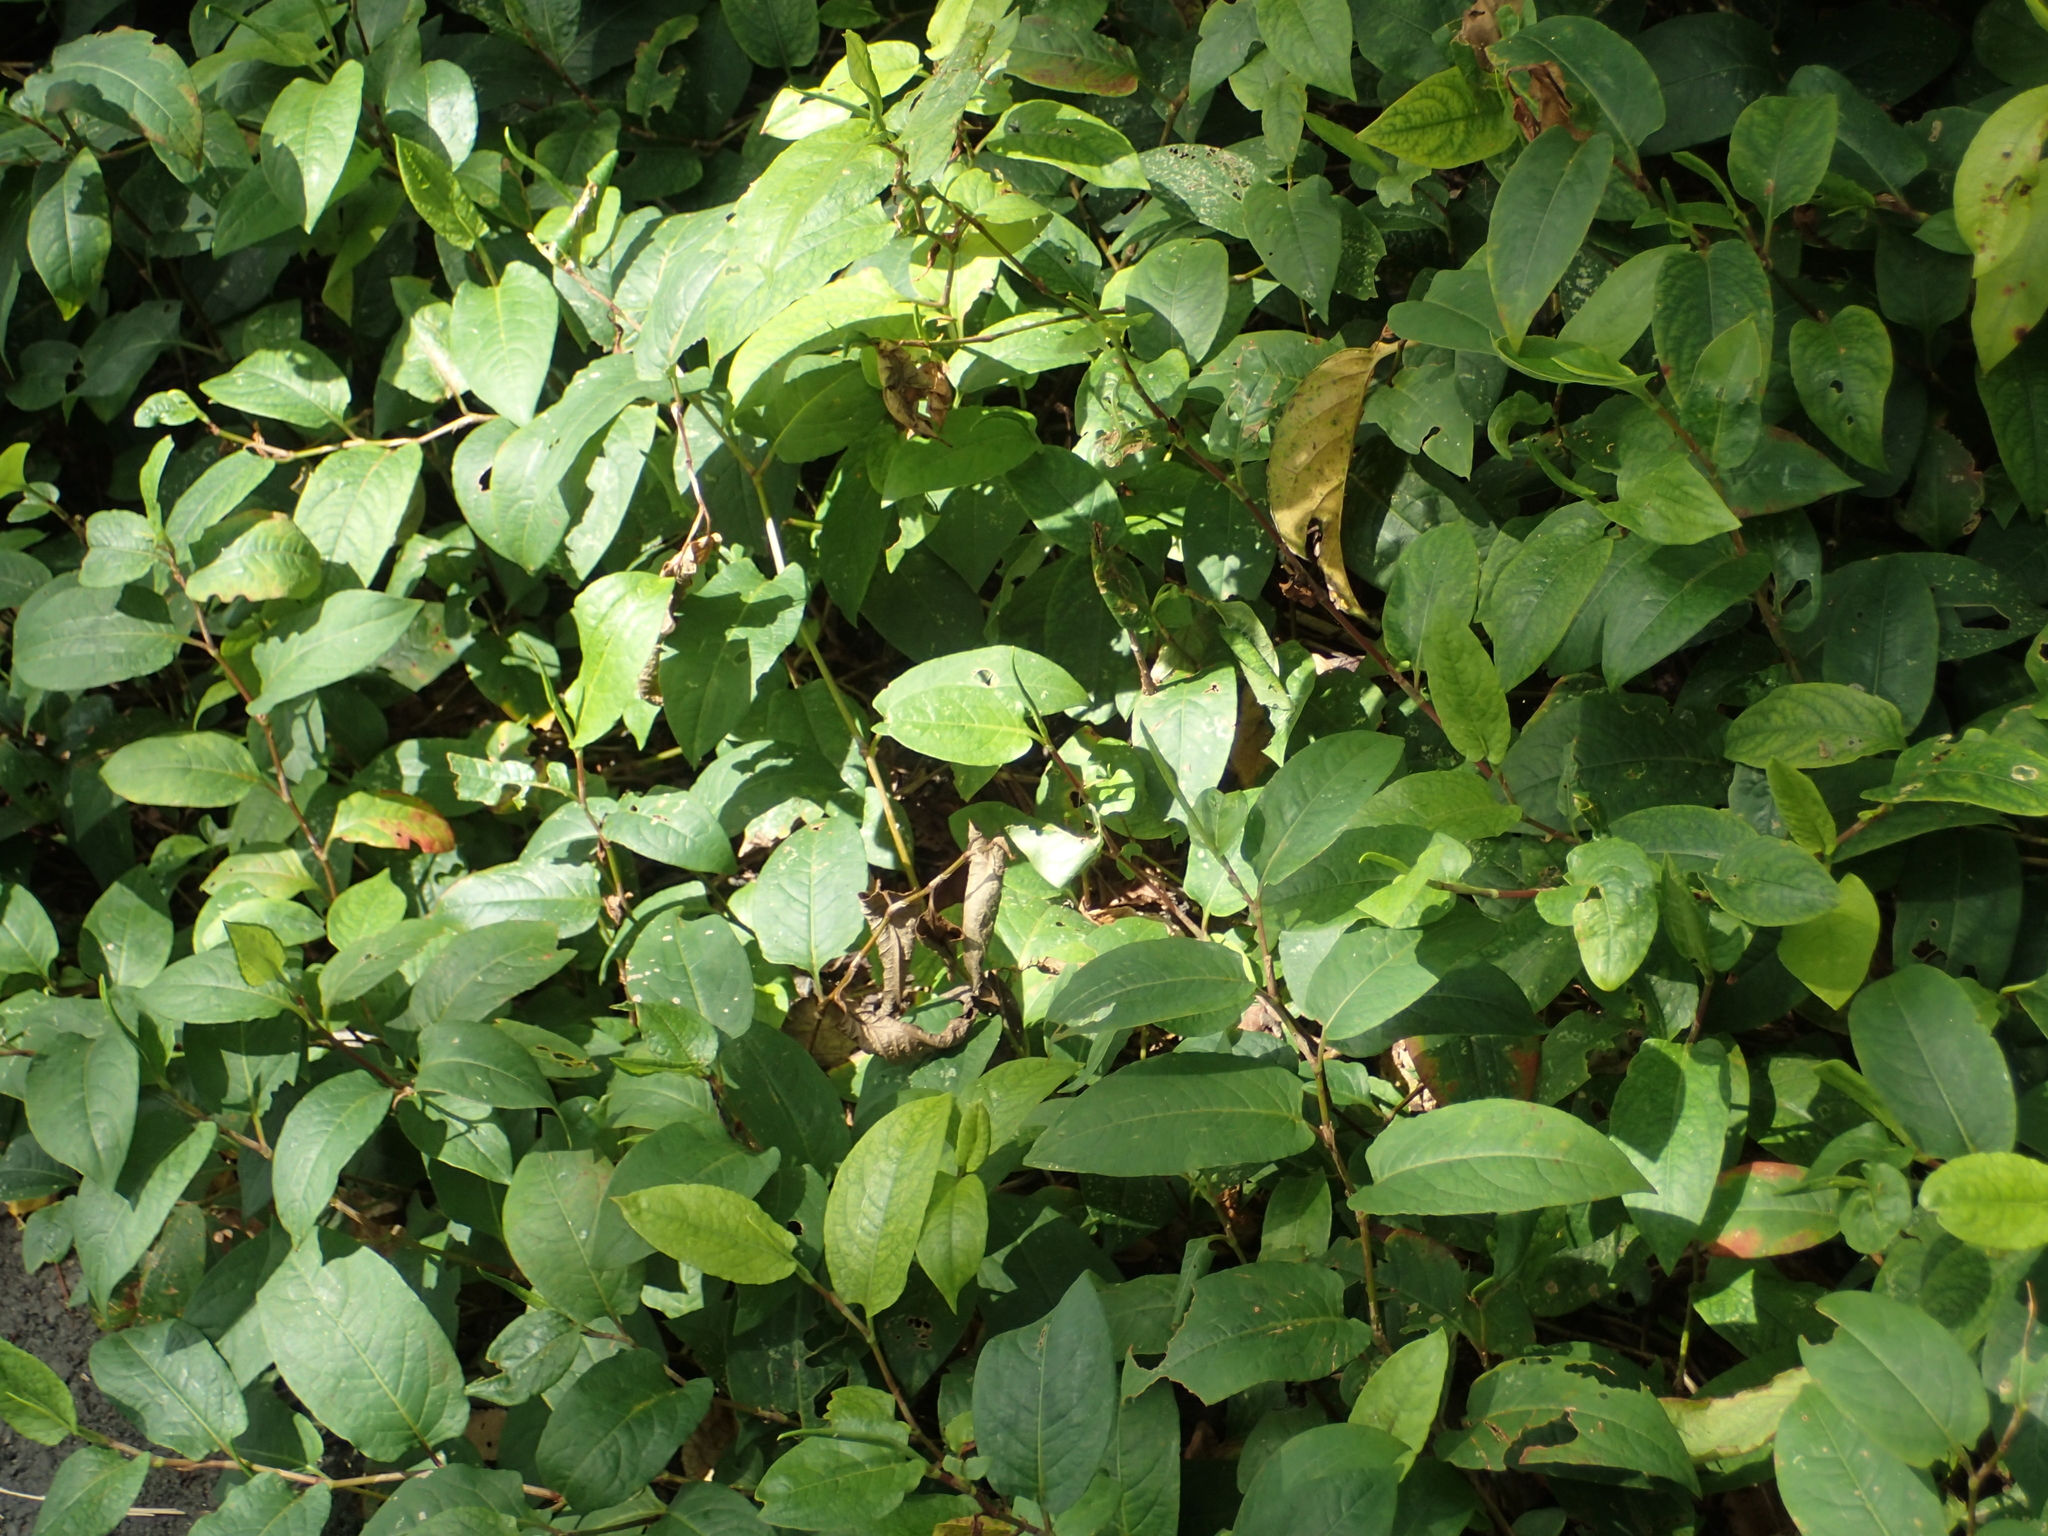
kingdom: Plantae
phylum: Tracheophyta
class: Magnoliopsida
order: Caryophyllales
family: Polygonaceae
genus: Persicaria
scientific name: Persicaria chinensis
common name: Chinese knotweed
